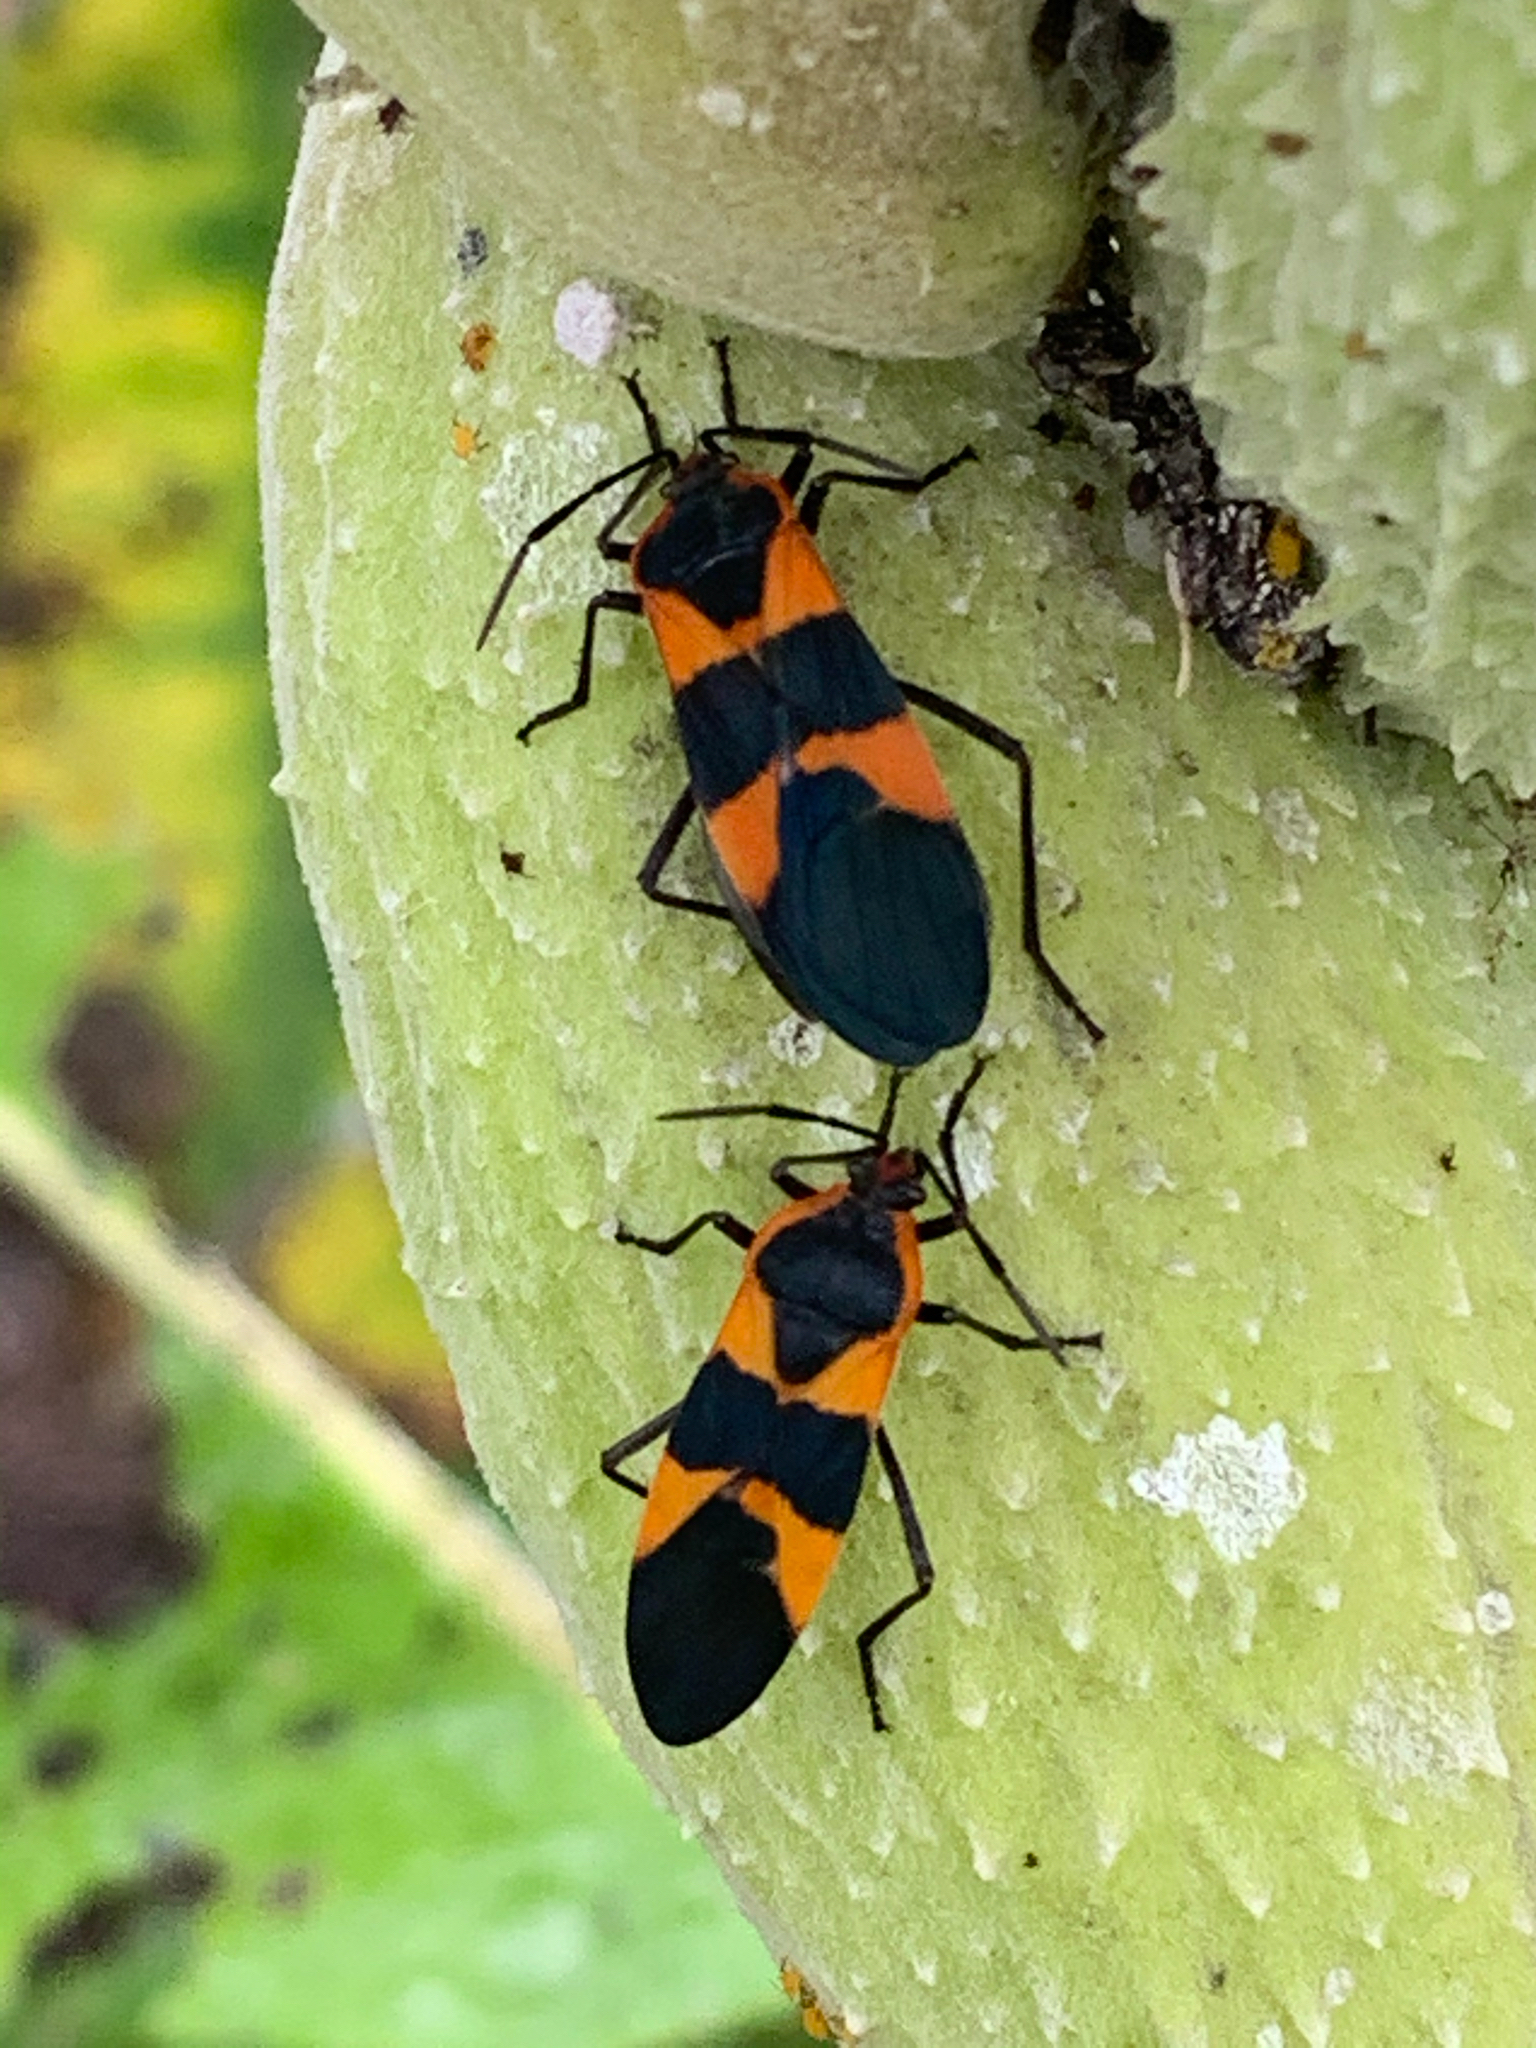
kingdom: Animalia
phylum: Arthropoda
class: Insecta
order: Hemiptera
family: Lygaeidae
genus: Oncopeltus
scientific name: Oncopeltus fasciatus
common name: Large milkweed bug
